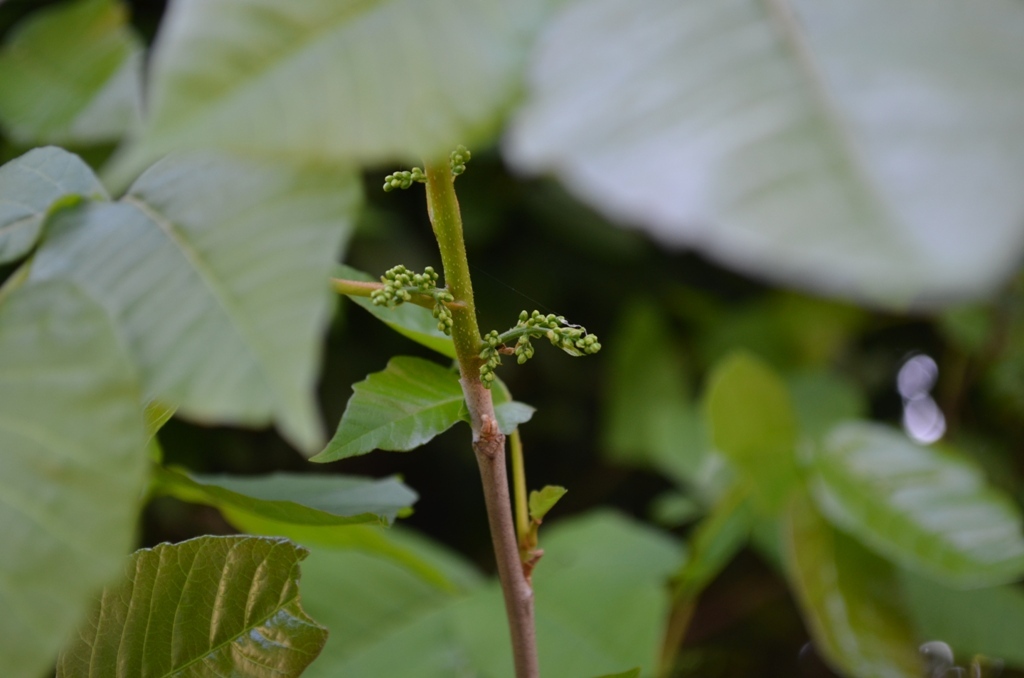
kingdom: Plantae
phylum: Tracheophyta
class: Magnoliopsida
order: Sapindales
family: Anacardiaceae
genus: Toxicodendron
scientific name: Toxicodendron radicans
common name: Poison ivy
